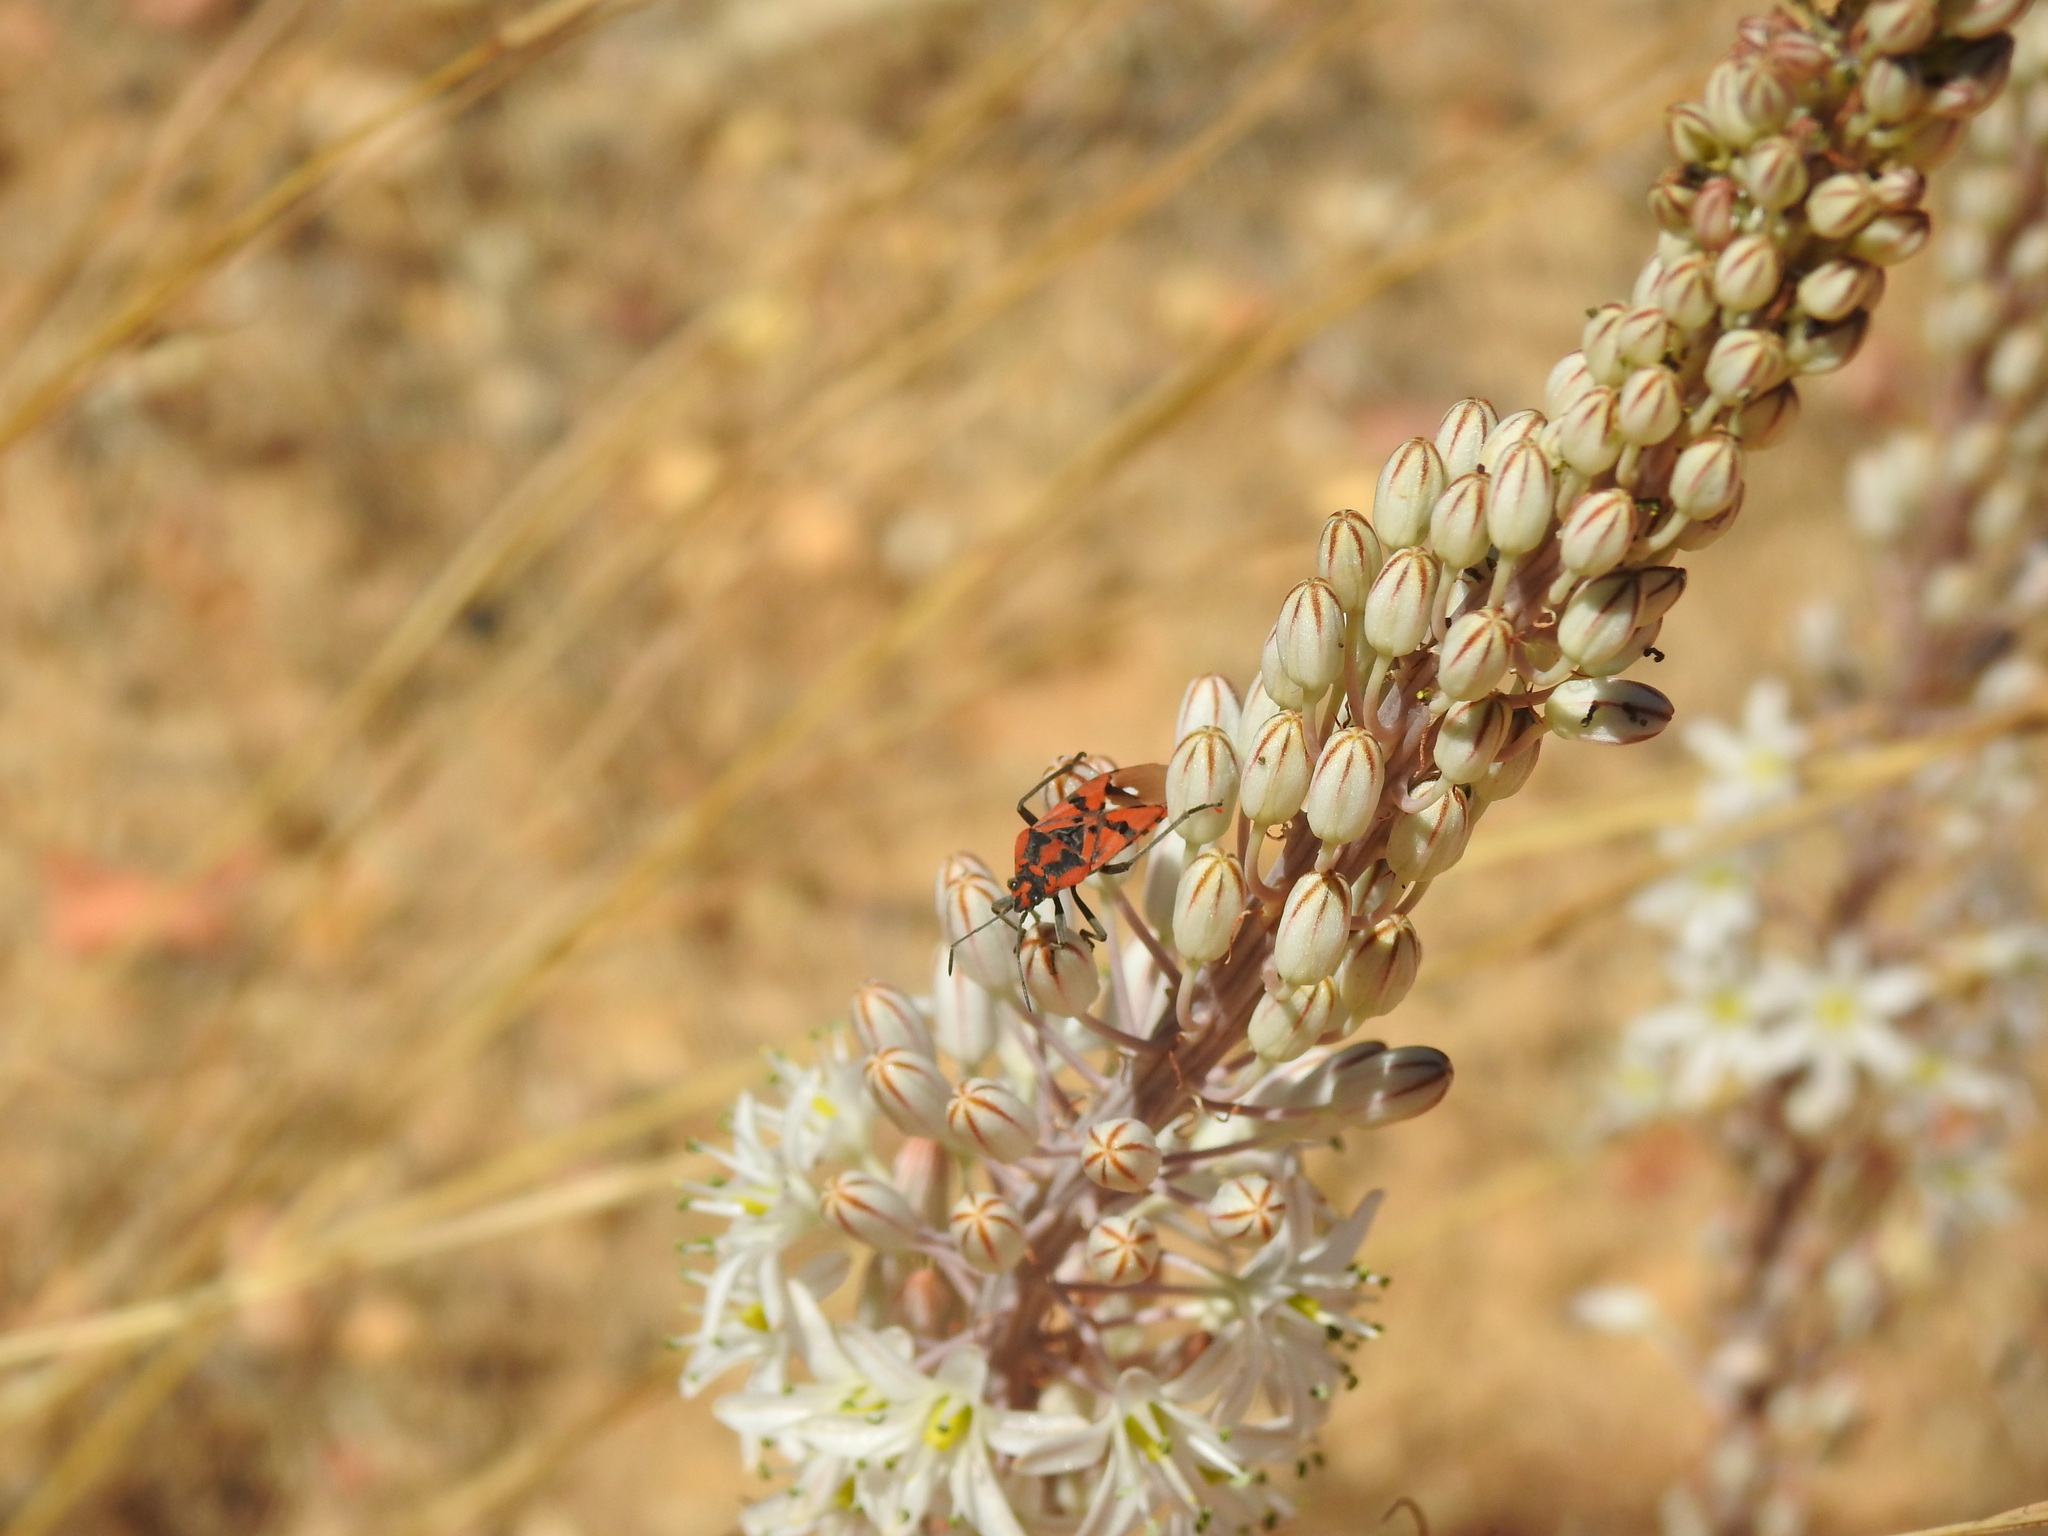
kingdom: Animalia
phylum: Arthropoda
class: Insecta
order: Hemiptera
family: Lygaeidae
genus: Spilostethus
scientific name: Spilostethus pandurus
